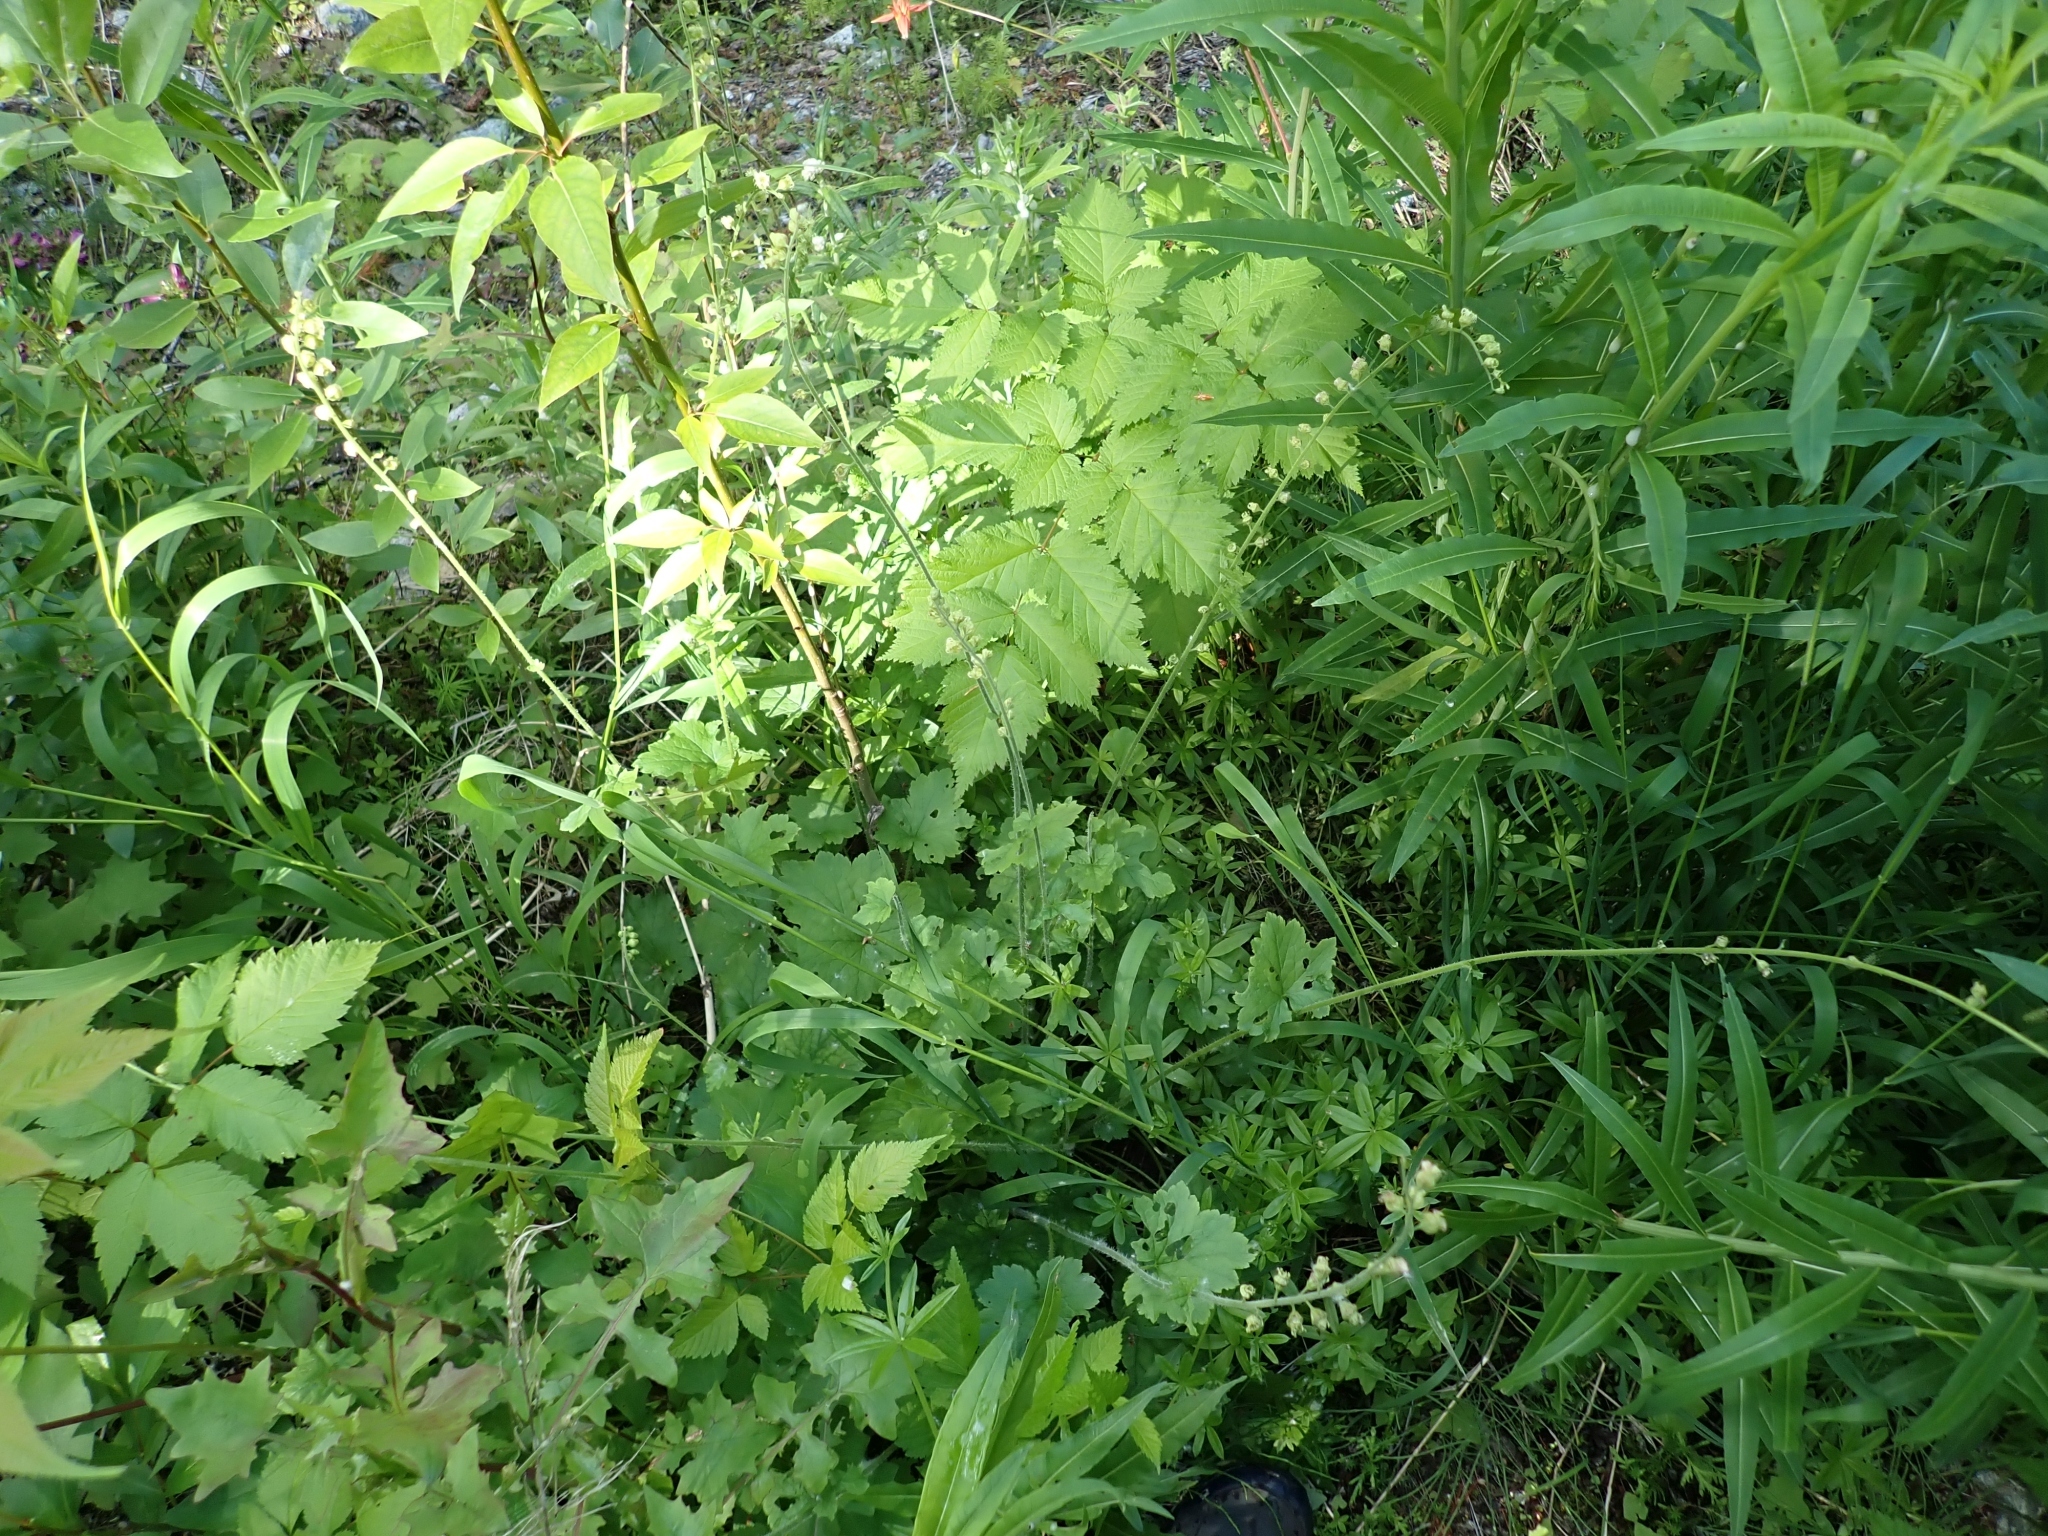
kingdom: Plantae
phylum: Tracheophyta
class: Magnoliopsida
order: Saxifragales
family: Saxifragaceae
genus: Tellima
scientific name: Tellima grandiflora
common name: Fringecups
